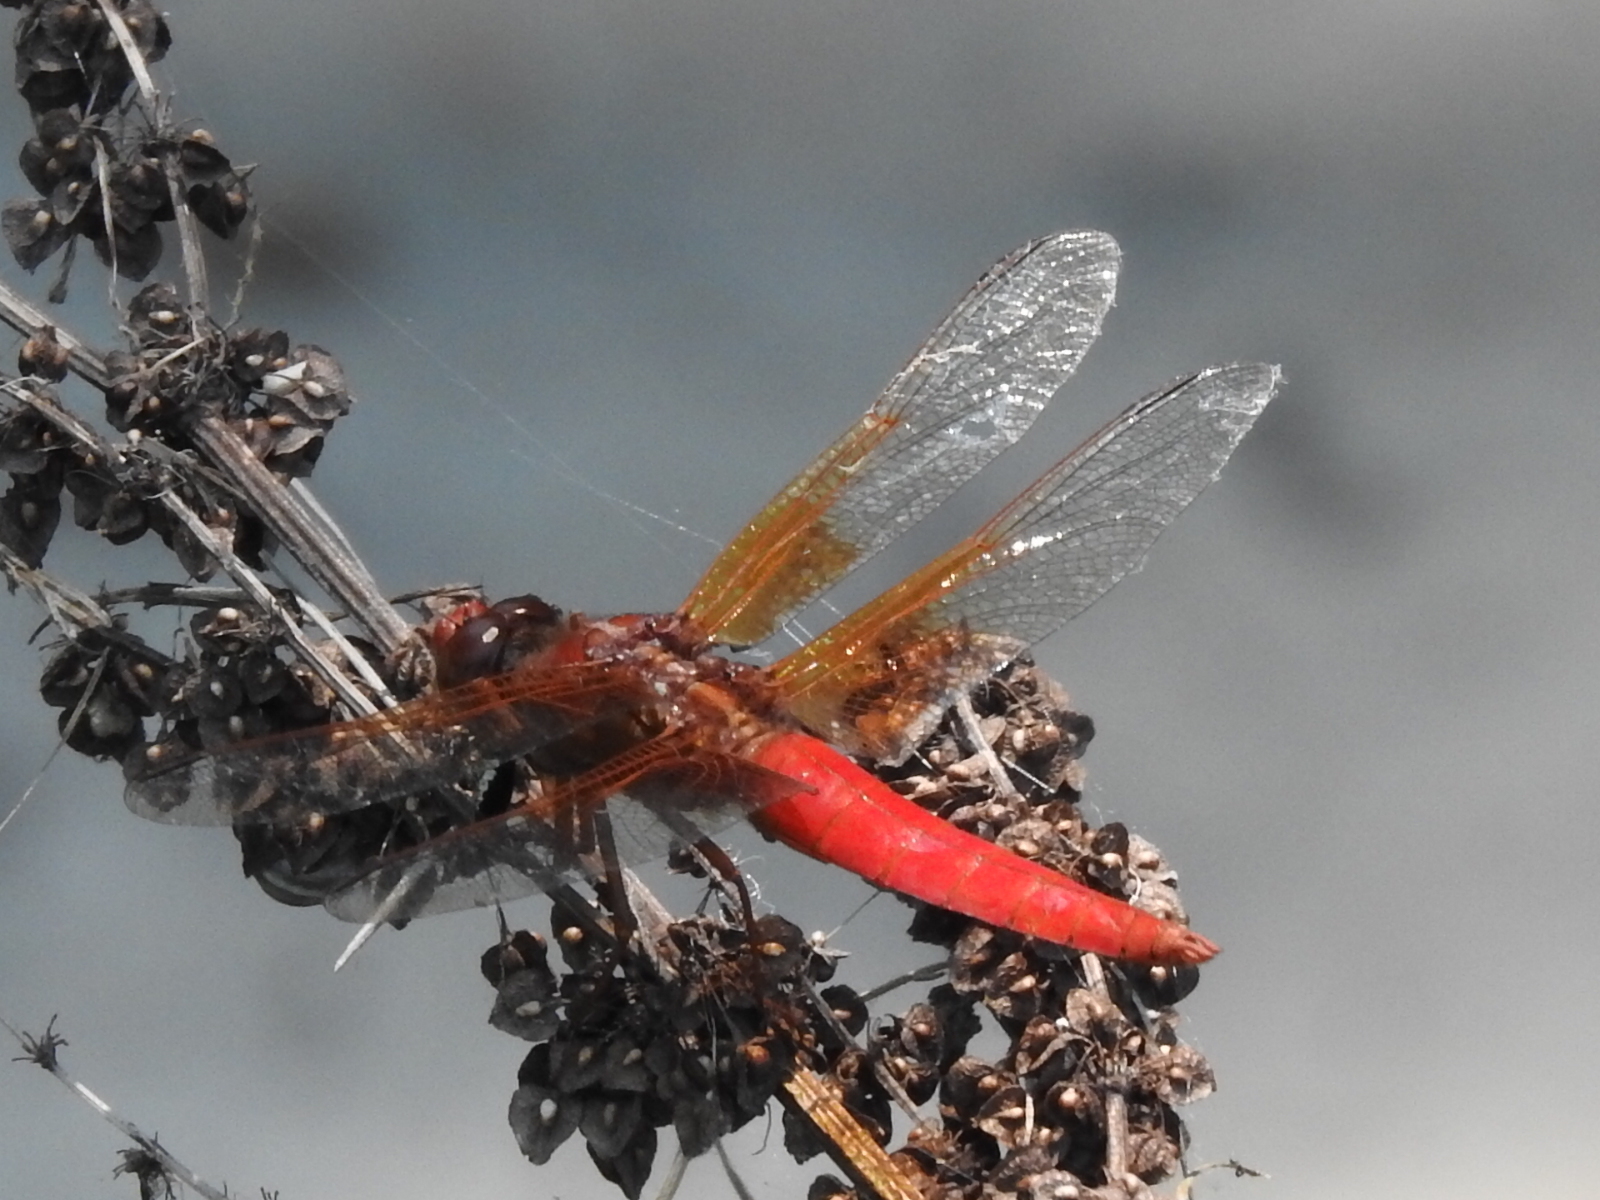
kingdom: Animalia
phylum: Arthropoda
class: Insecta
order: Odonata
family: Libellulidae
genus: Libellula
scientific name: Libellula croceipennis
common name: Neon skimmer
